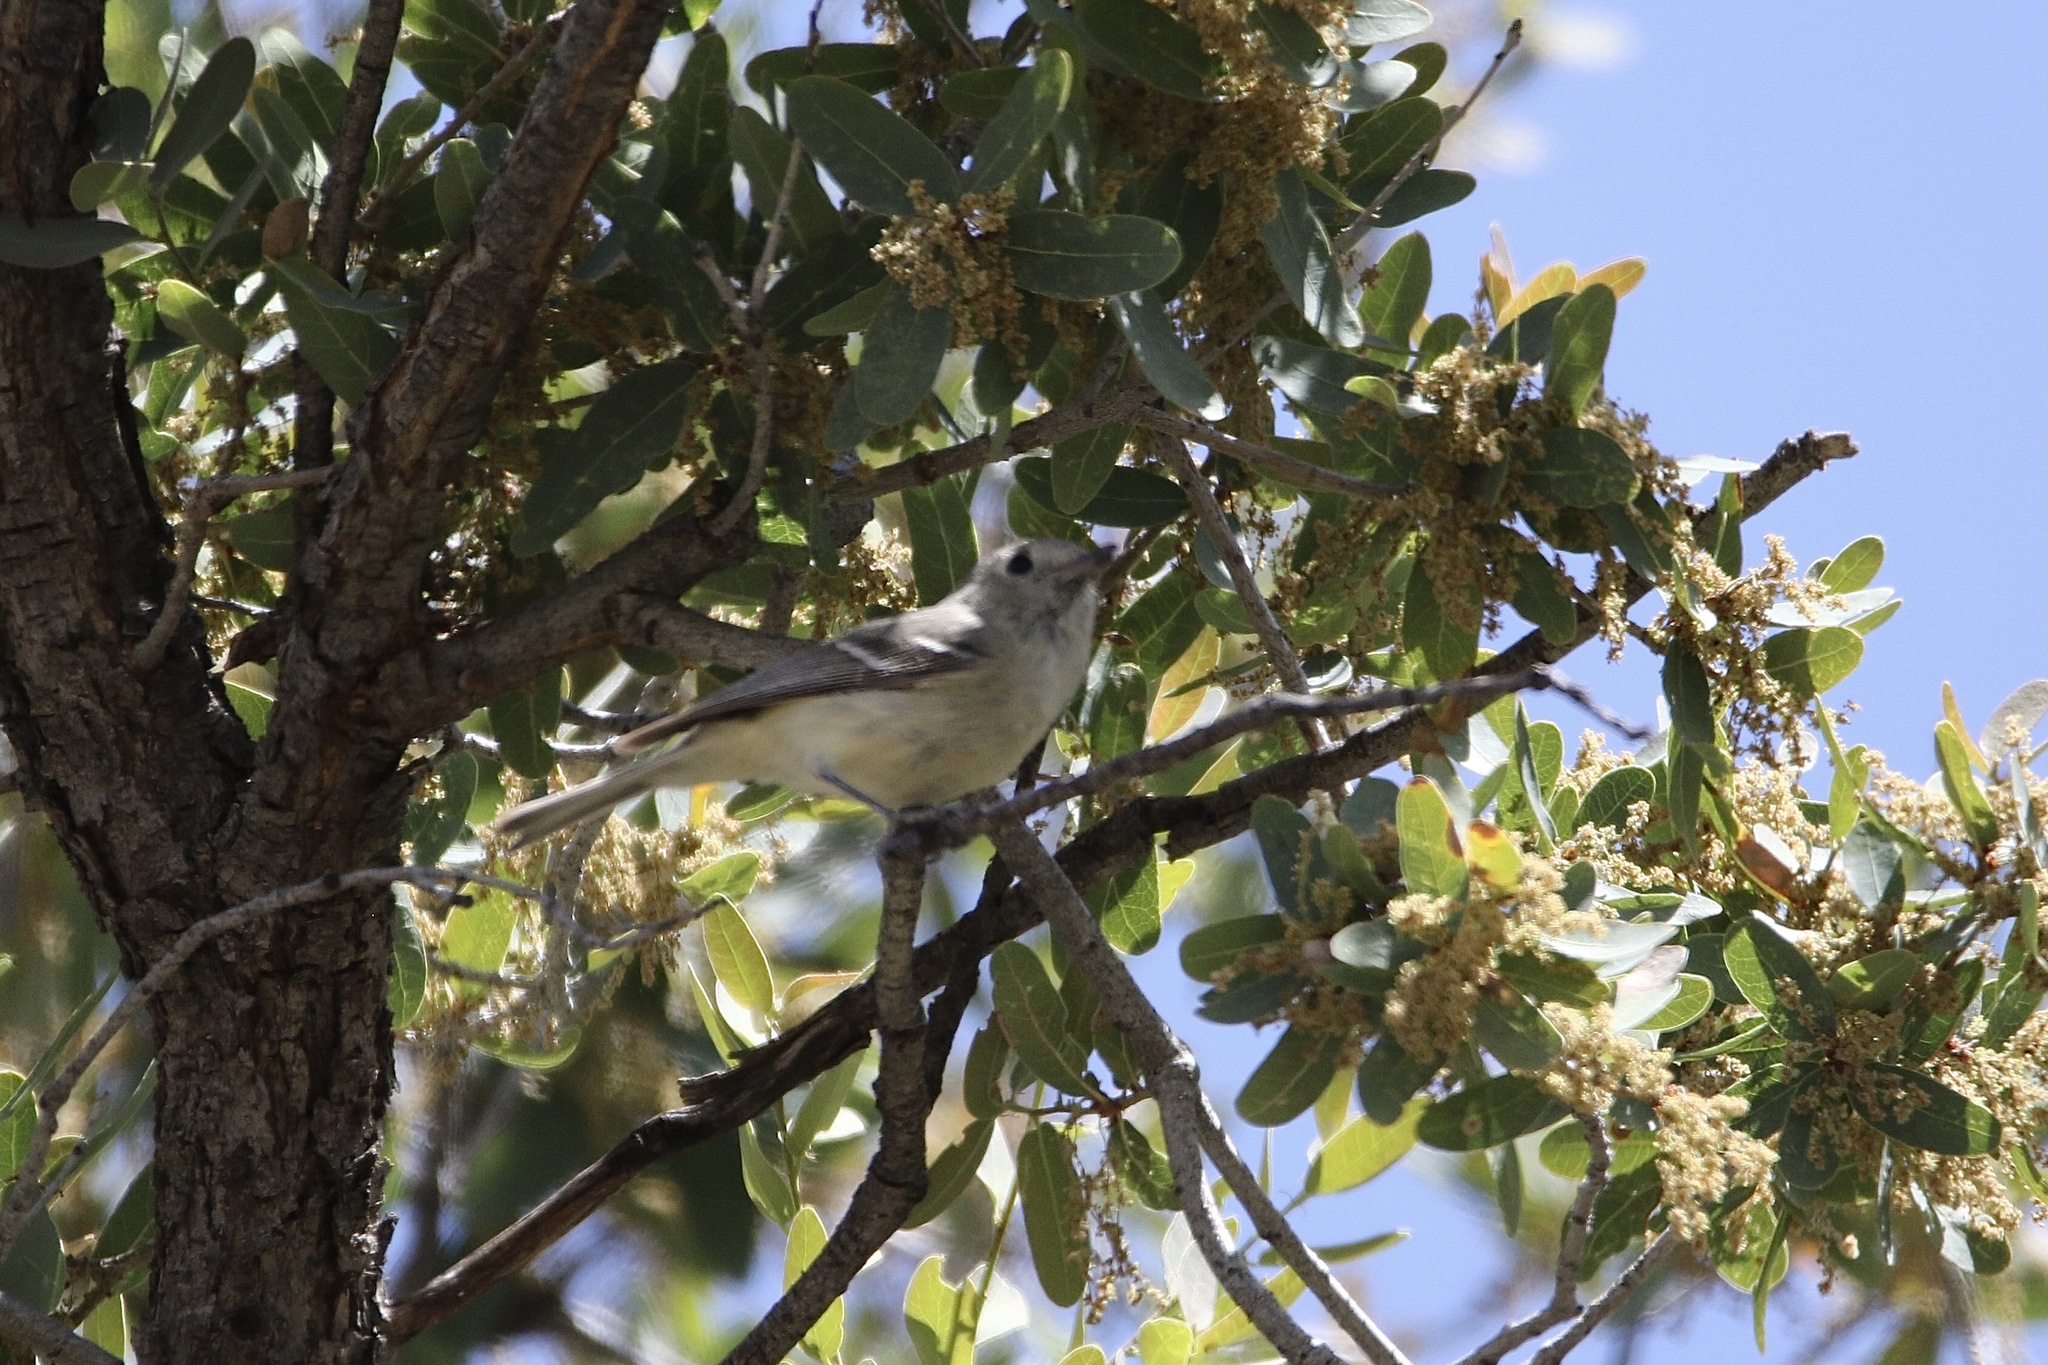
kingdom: Animalia
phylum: Chordata
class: Aves
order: Passeriformes
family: Vireonidae
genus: Vireo
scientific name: Vireo huttoni
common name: Hutton's vireo
